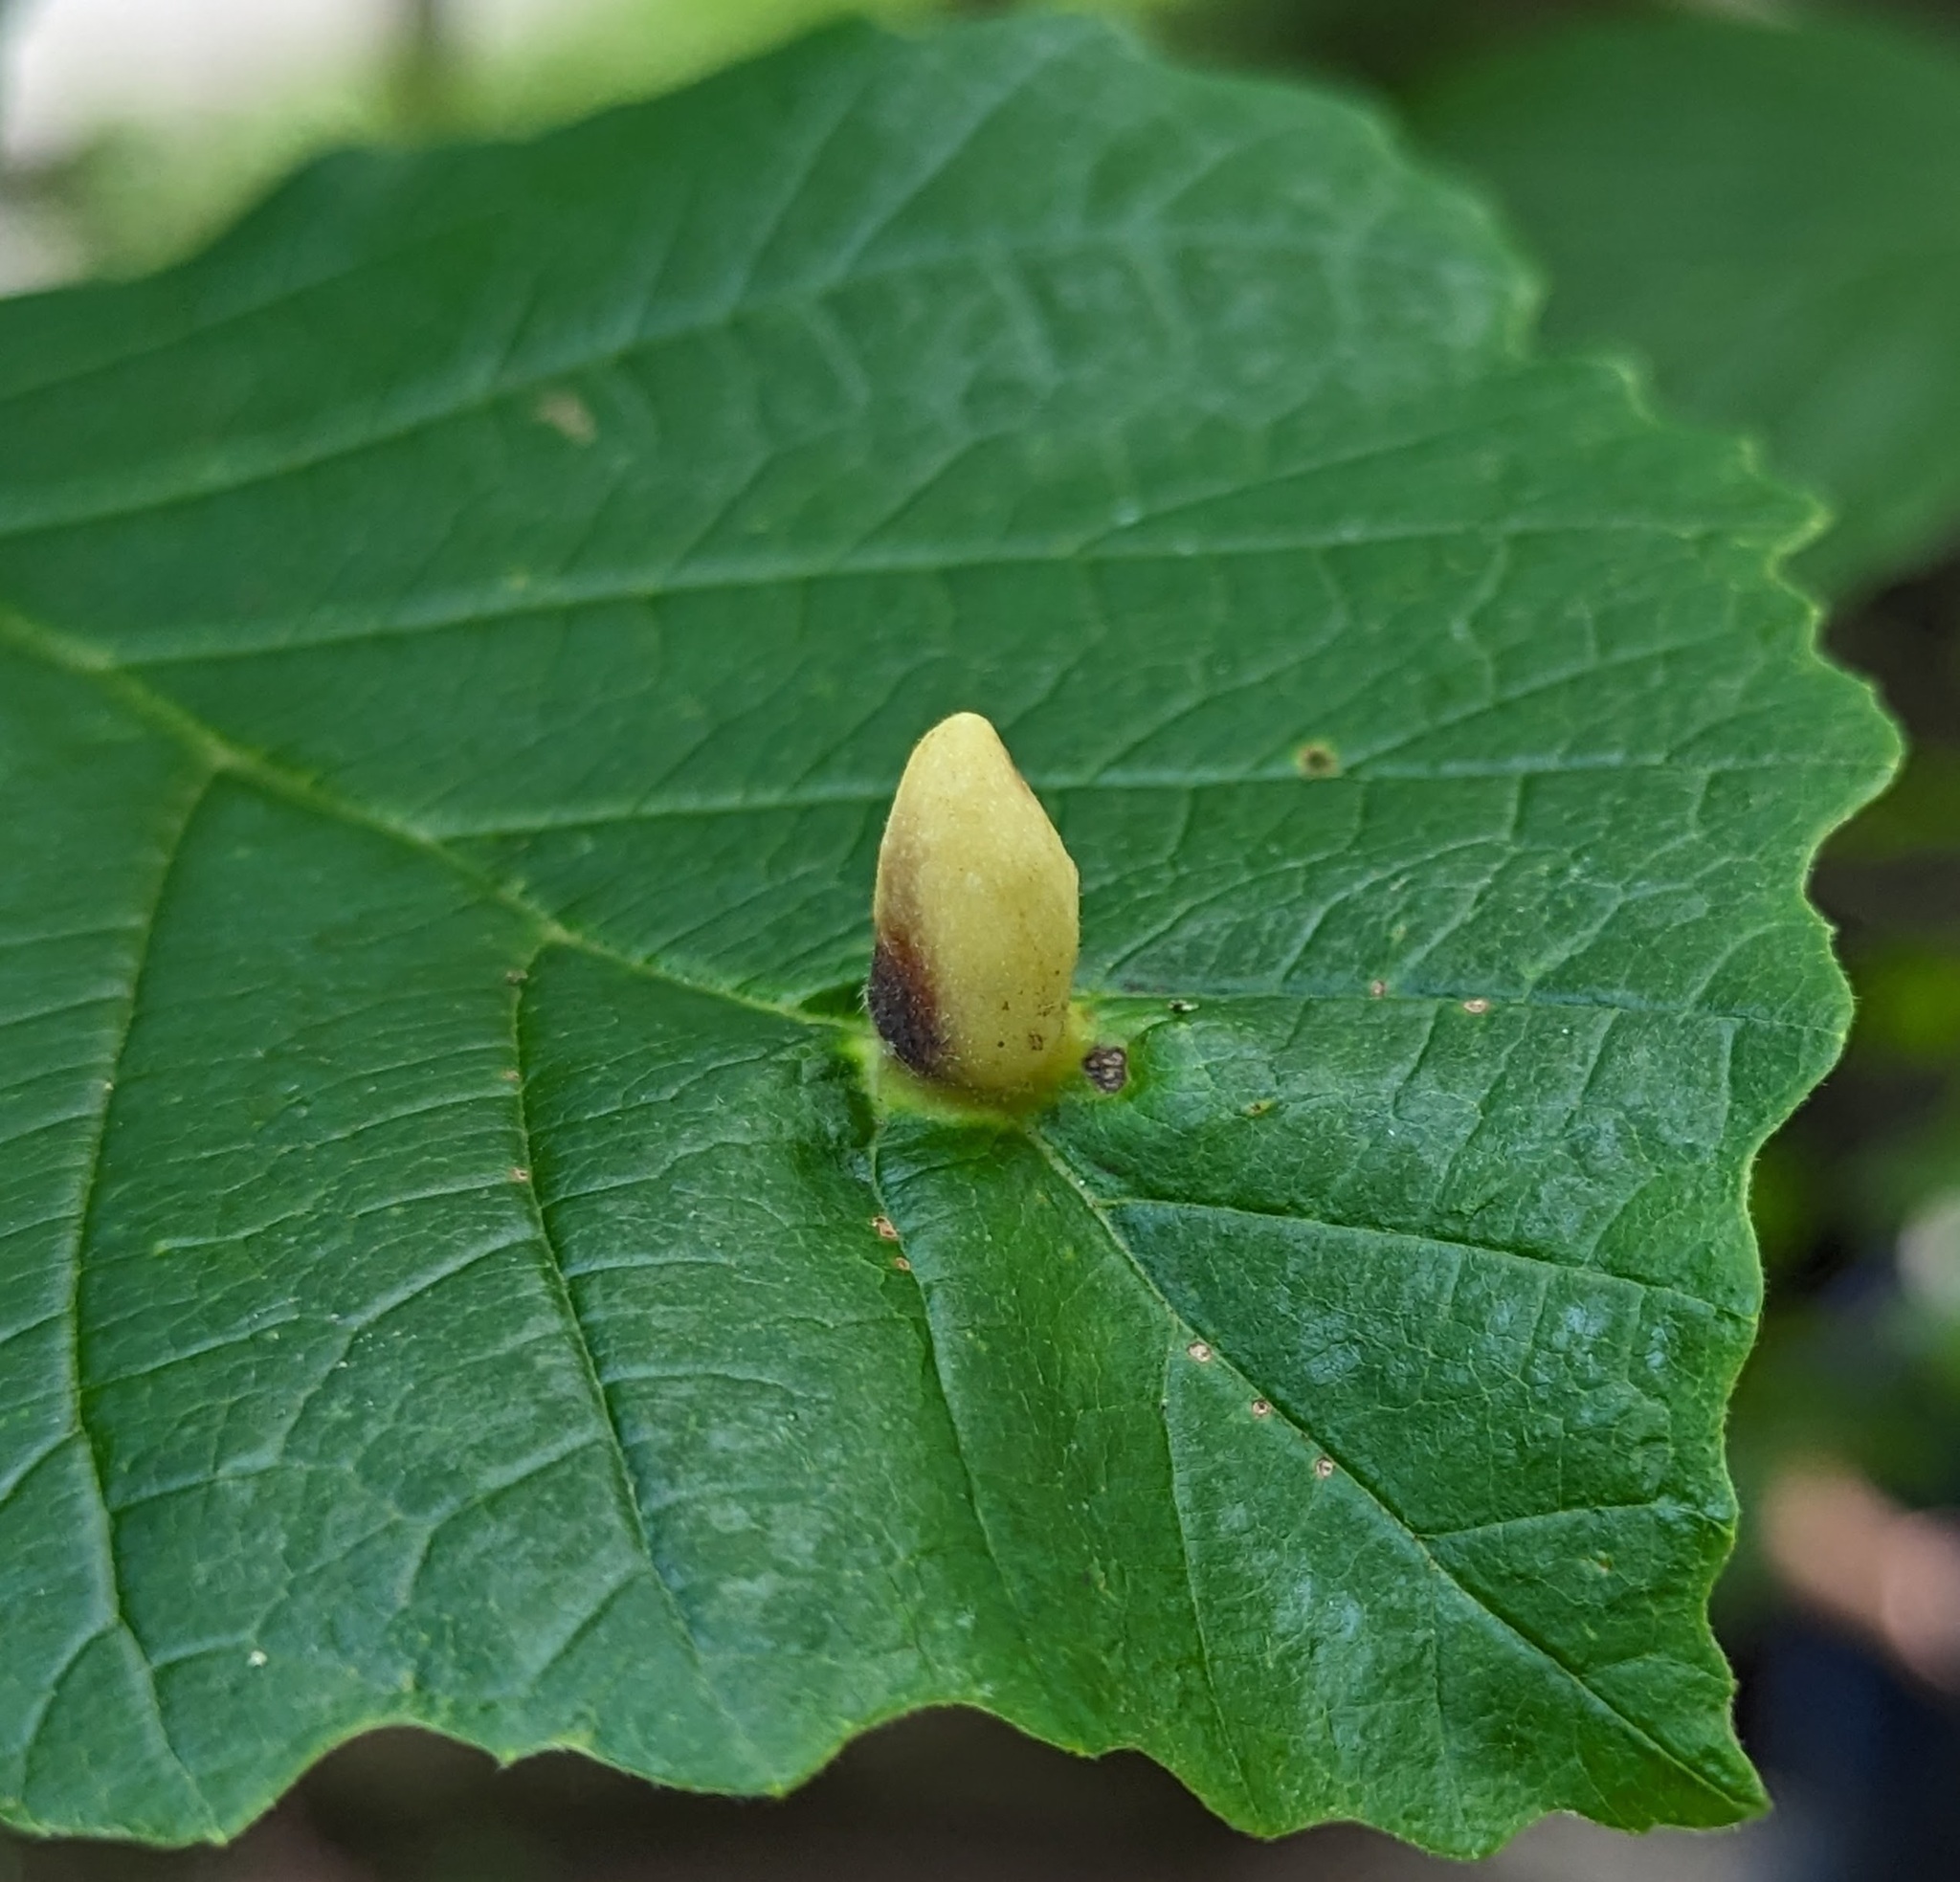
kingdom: Animalia
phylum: Arthropoda
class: Insecta
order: Hemiptera
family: Aphididae
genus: Hormaphis
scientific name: Hormaphis hamamelidis
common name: Witch-hazel cone gall aphid
